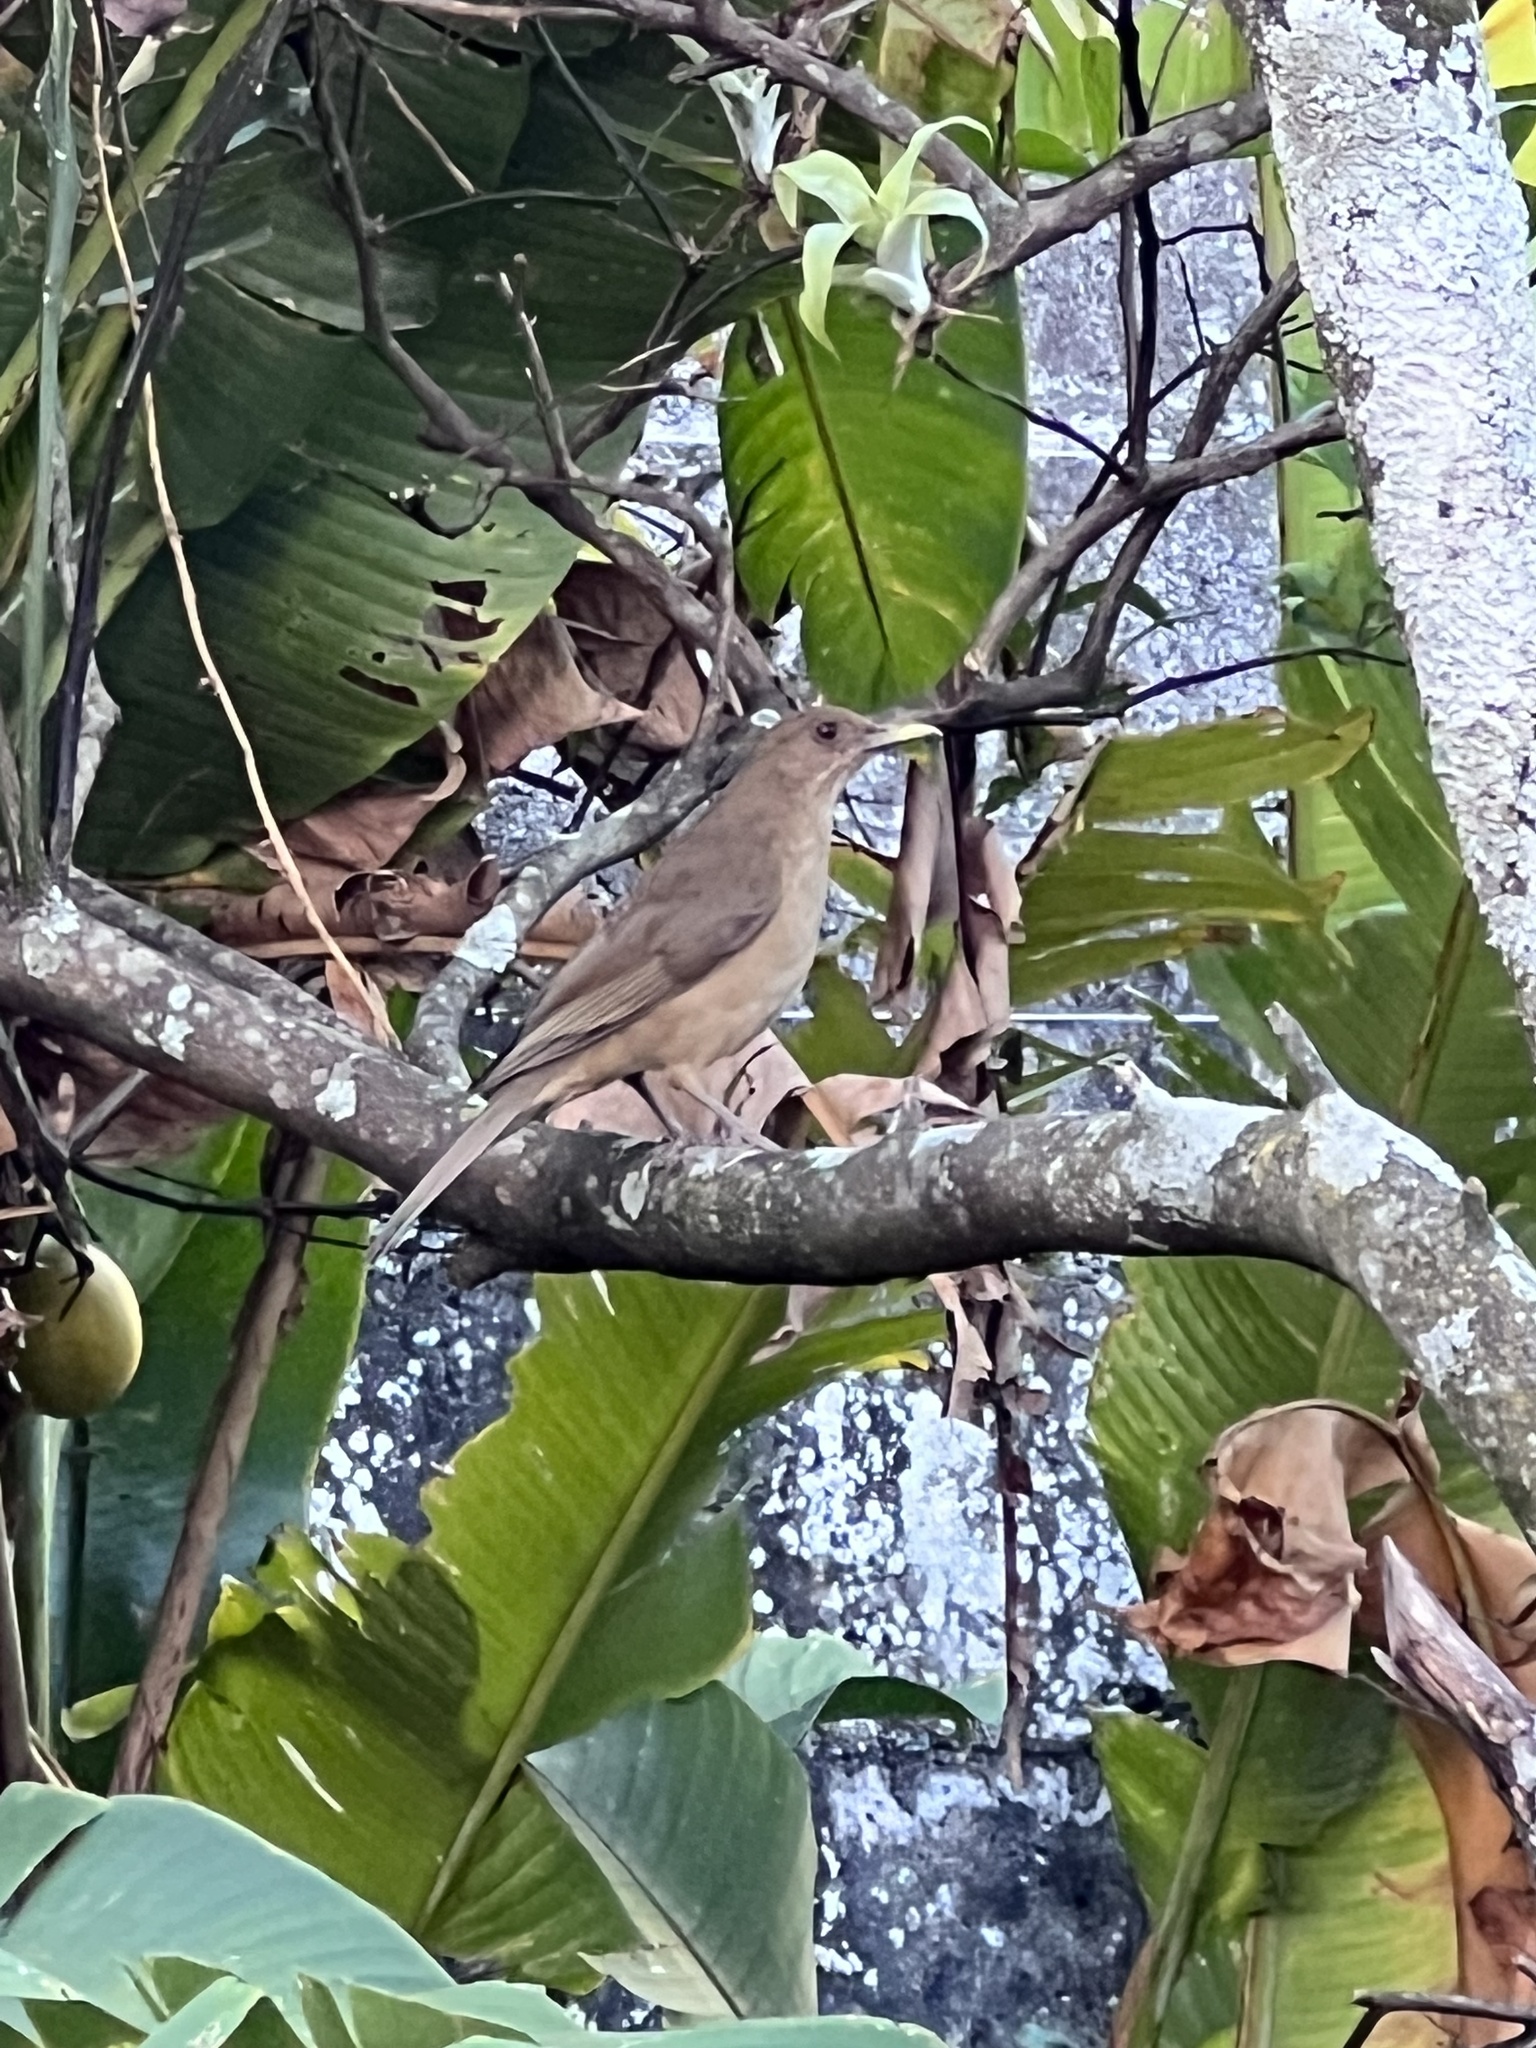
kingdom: Animalia
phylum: Chordata
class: Aves
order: Passeriformes
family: Turdidae
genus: Turdus
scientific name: Turdus grayi
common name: Clay-colored thrush
